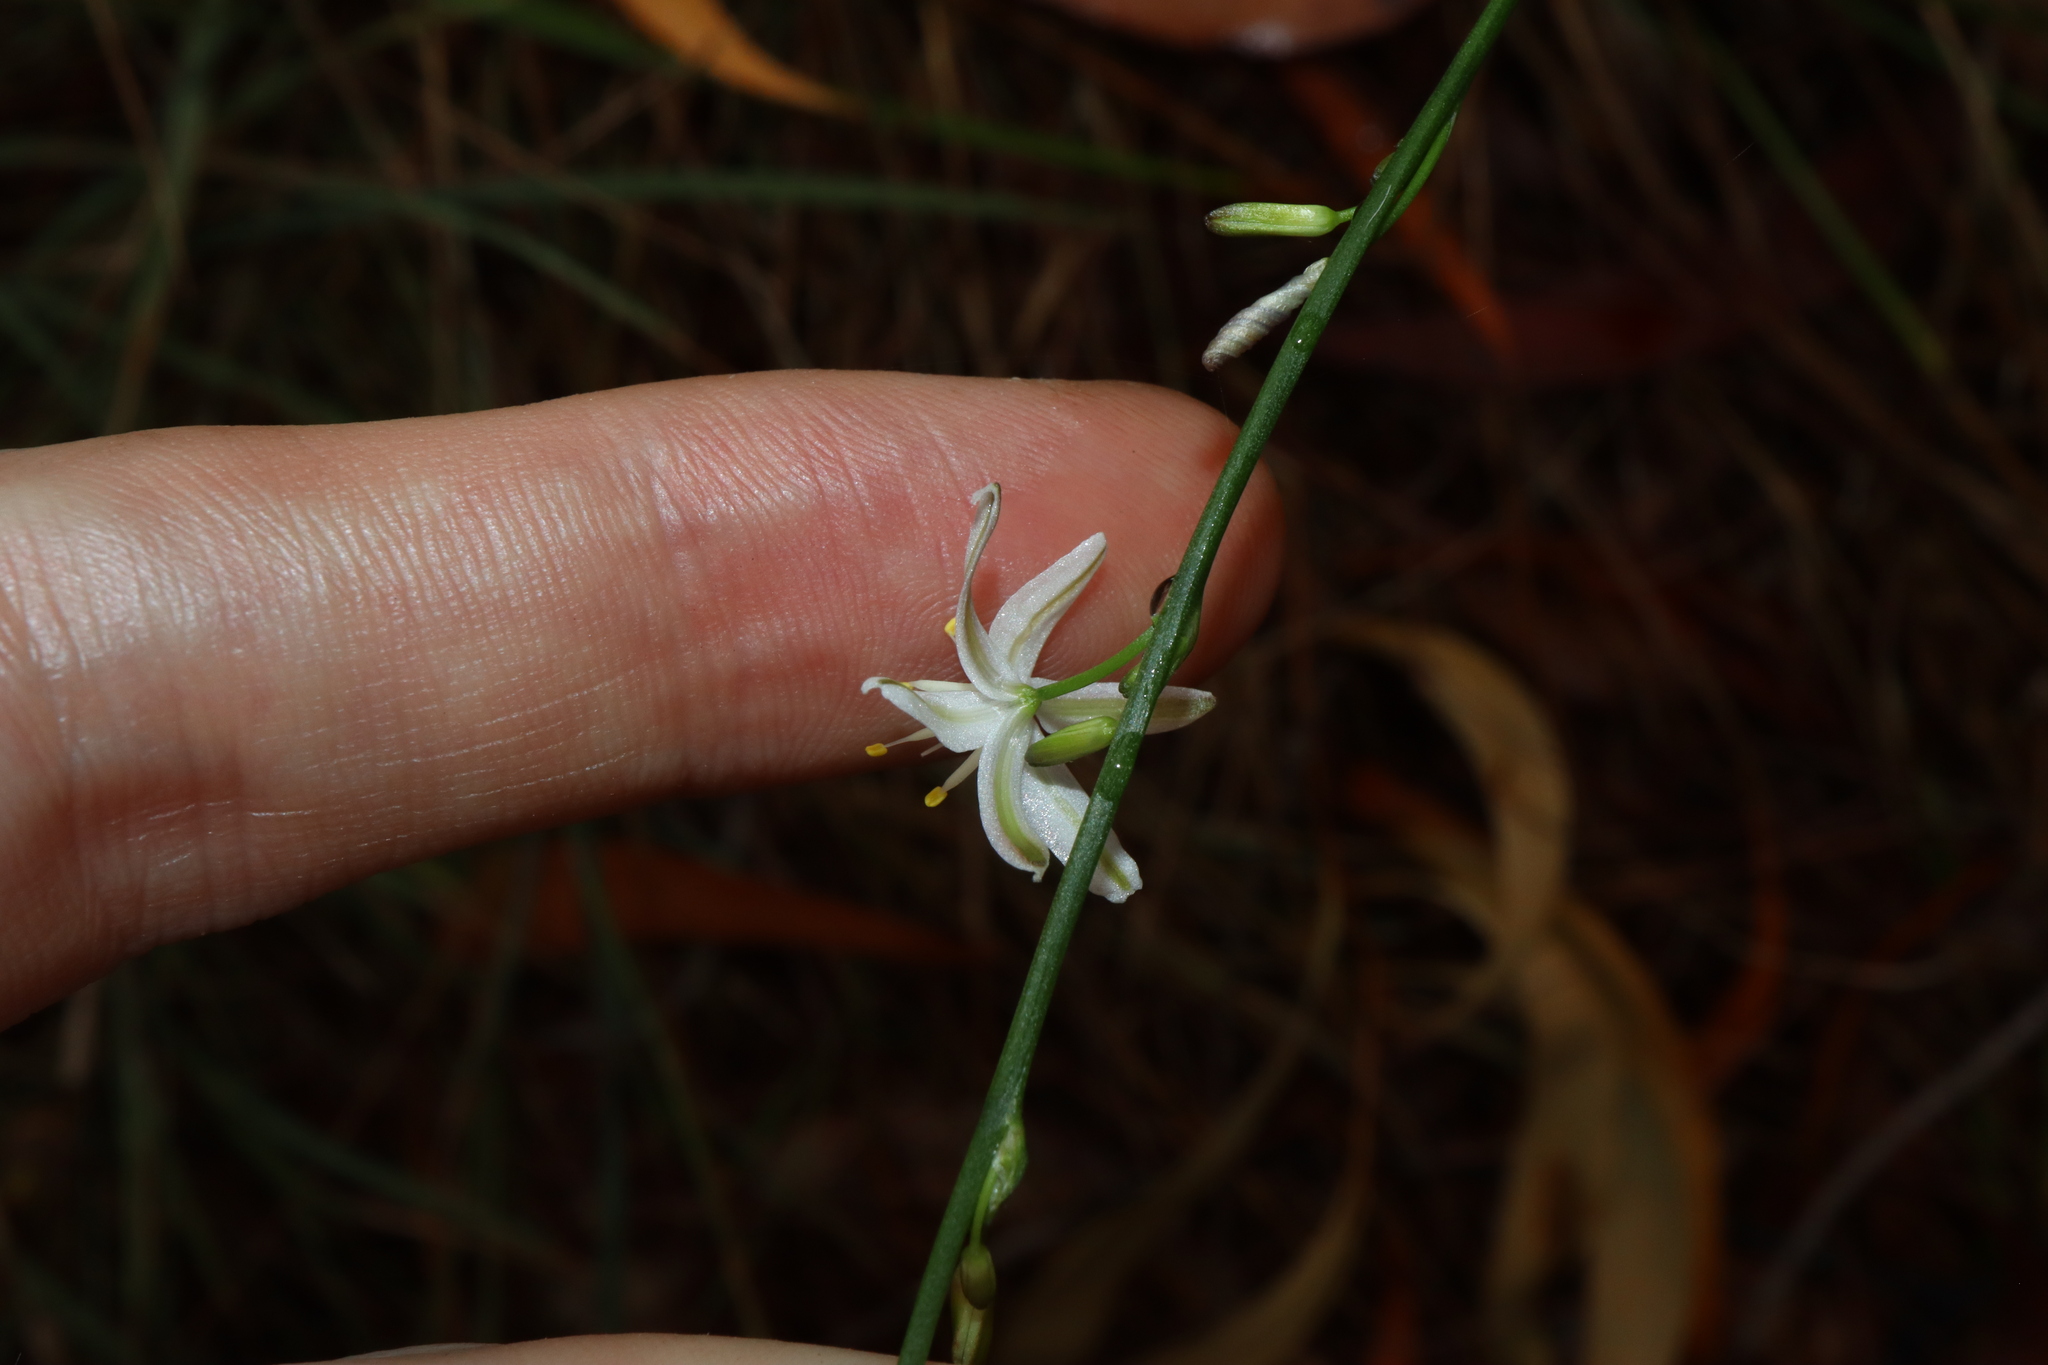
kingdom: Plantae
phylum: Tracheophyta
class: Liliopsida
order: Asparagales
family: Asphodelaceae
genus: Caesia
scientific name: Caesia parviflora
